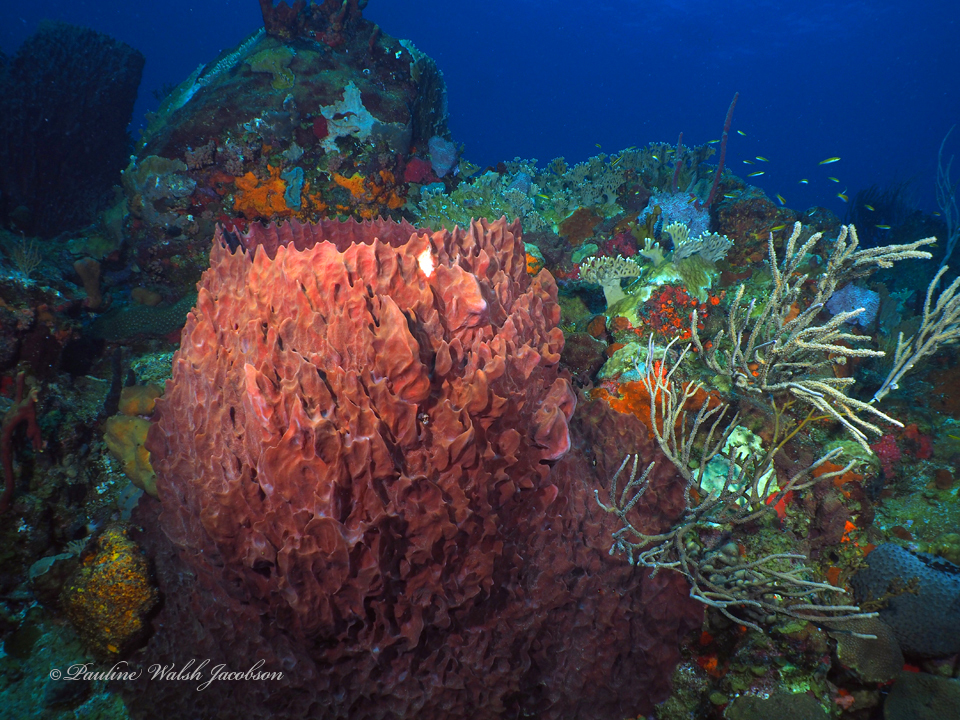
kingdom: Animalia
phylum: Porifera
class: Demospongiae
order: Haplosclerida
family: Petrosiidae
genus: Xestospongia
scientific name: Xestospongia muta
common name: Giant barrel sponge
